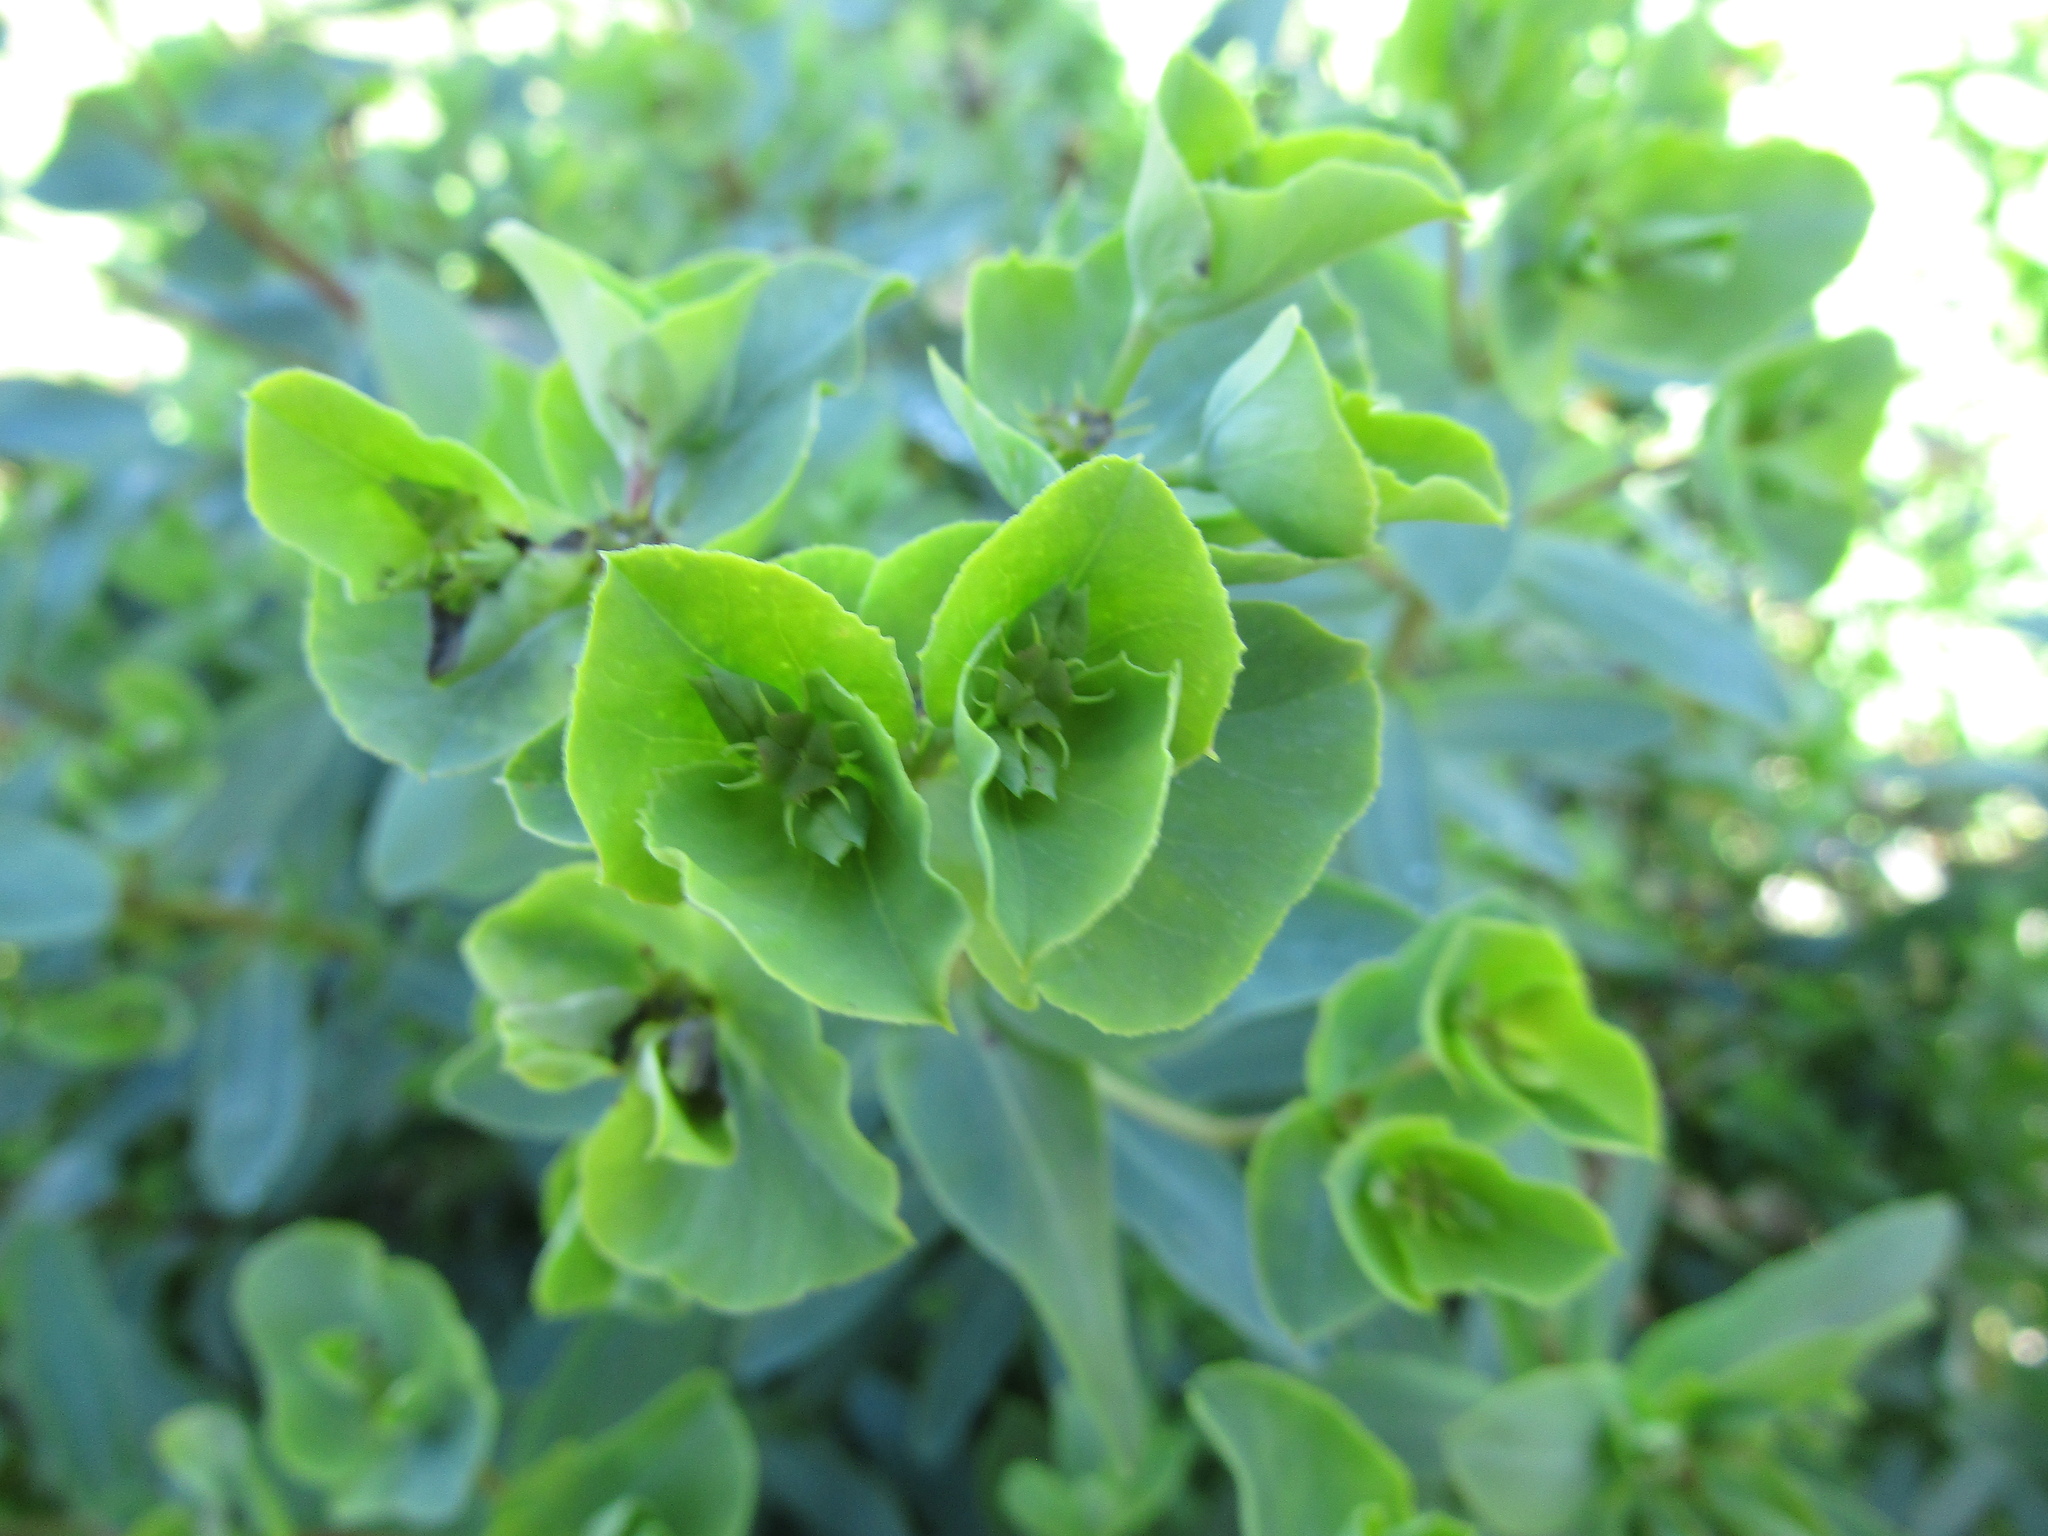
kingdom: Plantae
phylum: Tracheophyta
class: Magnoliopsida
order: Malpighiales
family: Euphorbiaceae
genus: Euphorbia
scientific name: Euphorbia terracina
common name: Geraldton carnation weed
